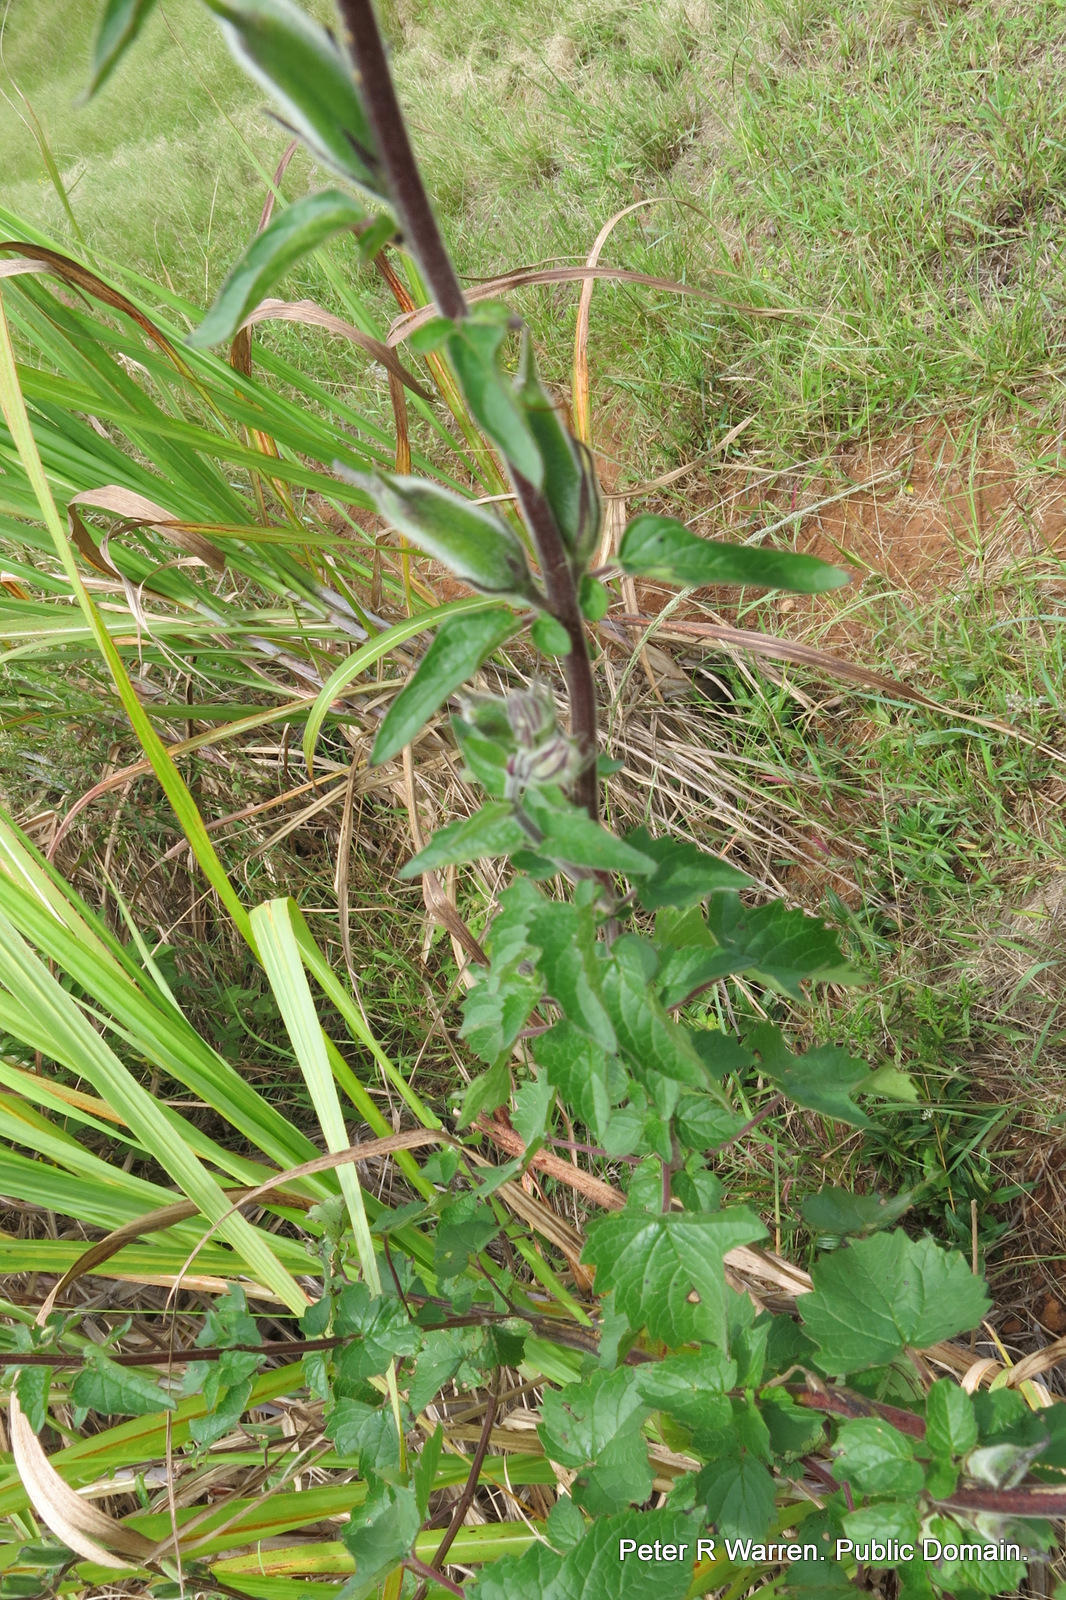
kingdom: Plantae
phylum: Tracheophyta
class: Magnoliopsida
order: Lamiales
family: Pedaliaceae
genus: Sesamum
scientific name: Sesamum trilobum
